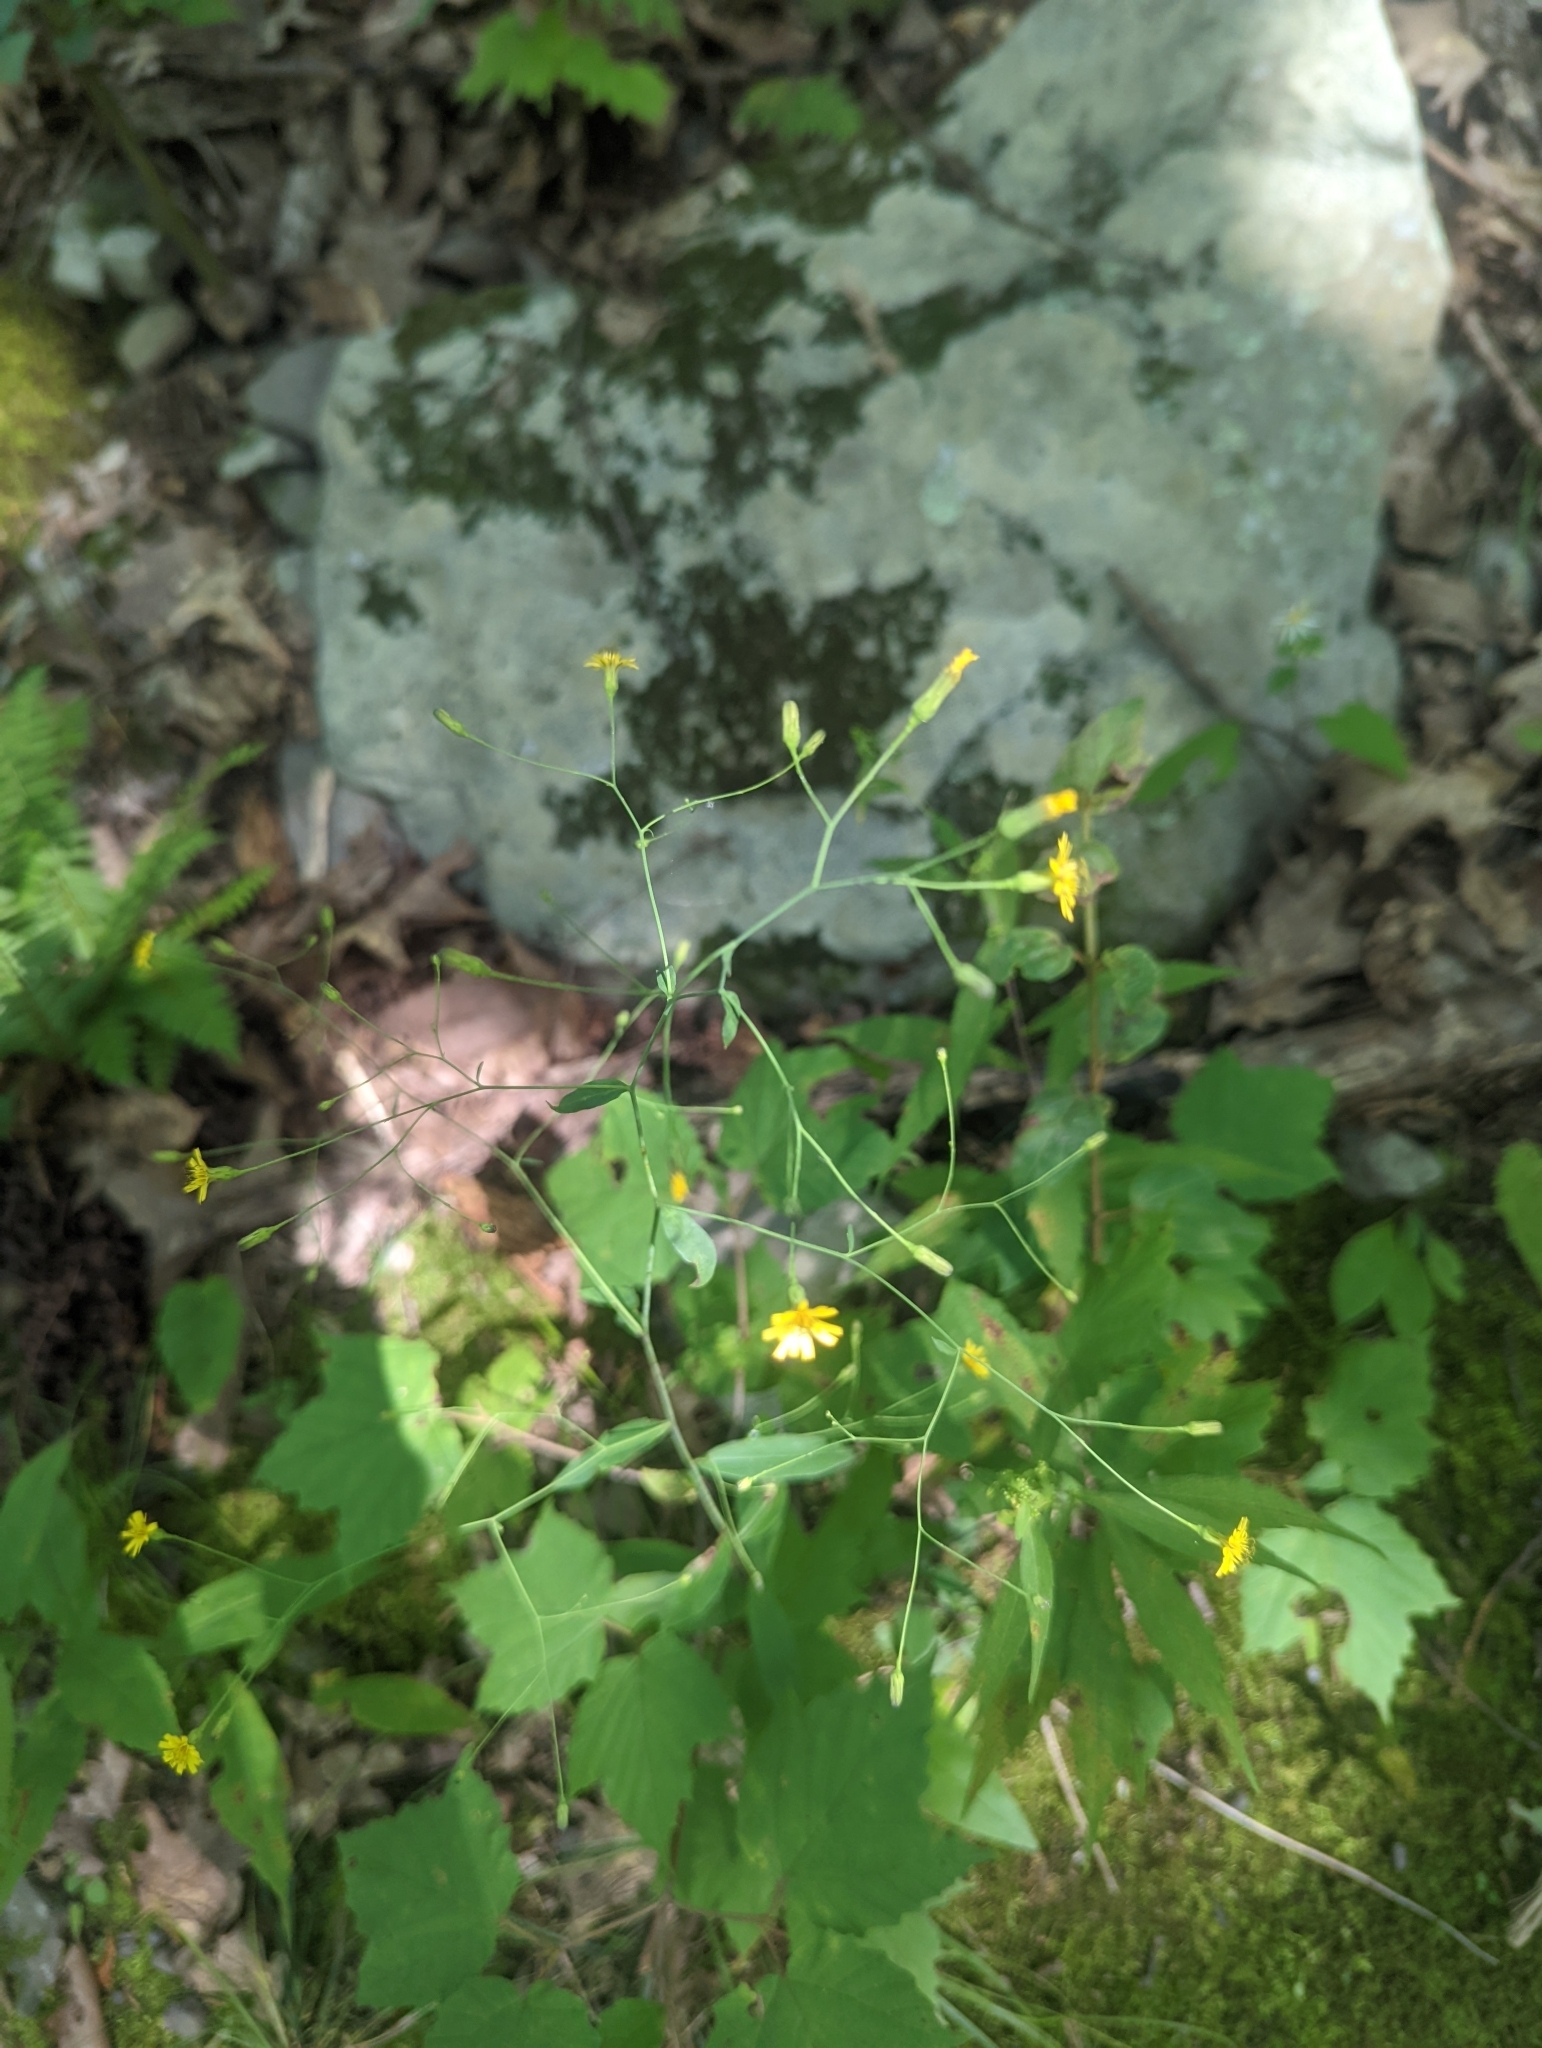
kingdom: Plantae
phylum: Tracheophyta
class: Magnoliopsida
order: Asterales
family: Asteraceae
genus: Hieracium
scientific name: Hieracium paniculatum
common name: Allegheny hawkweed
